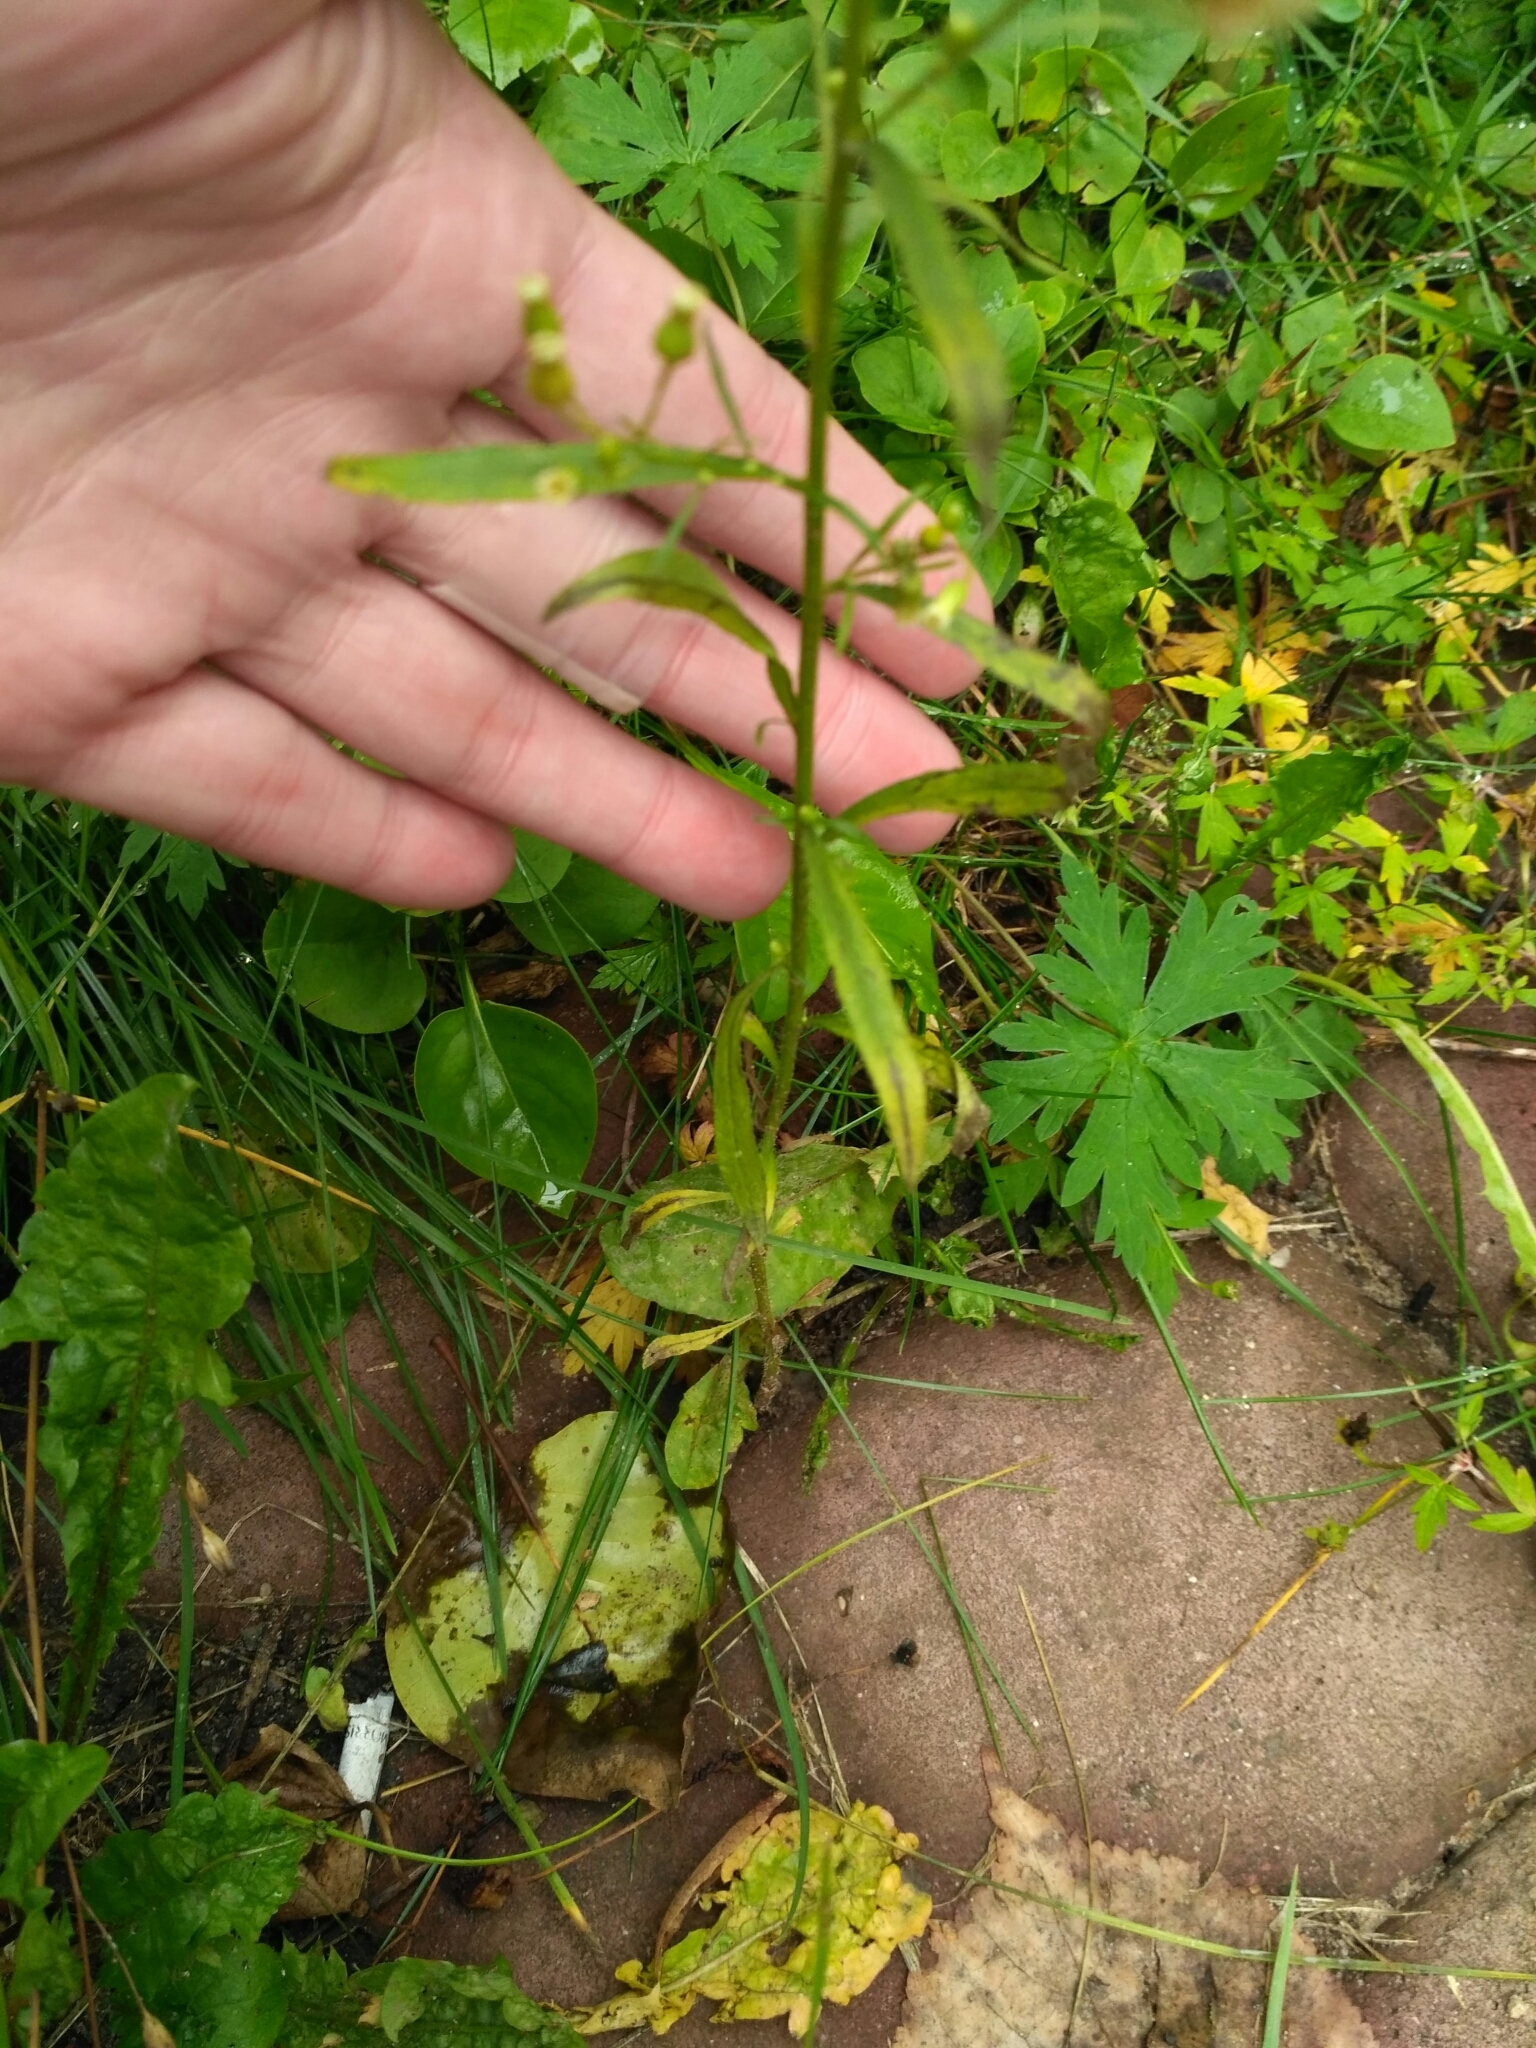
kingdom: Plantae
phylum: Tracheophyta
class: Magnoliopsida
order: Asterales
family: Asteraceae
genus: Erigeron
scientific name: Erigeron canadensis
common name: Canadian fleabane
